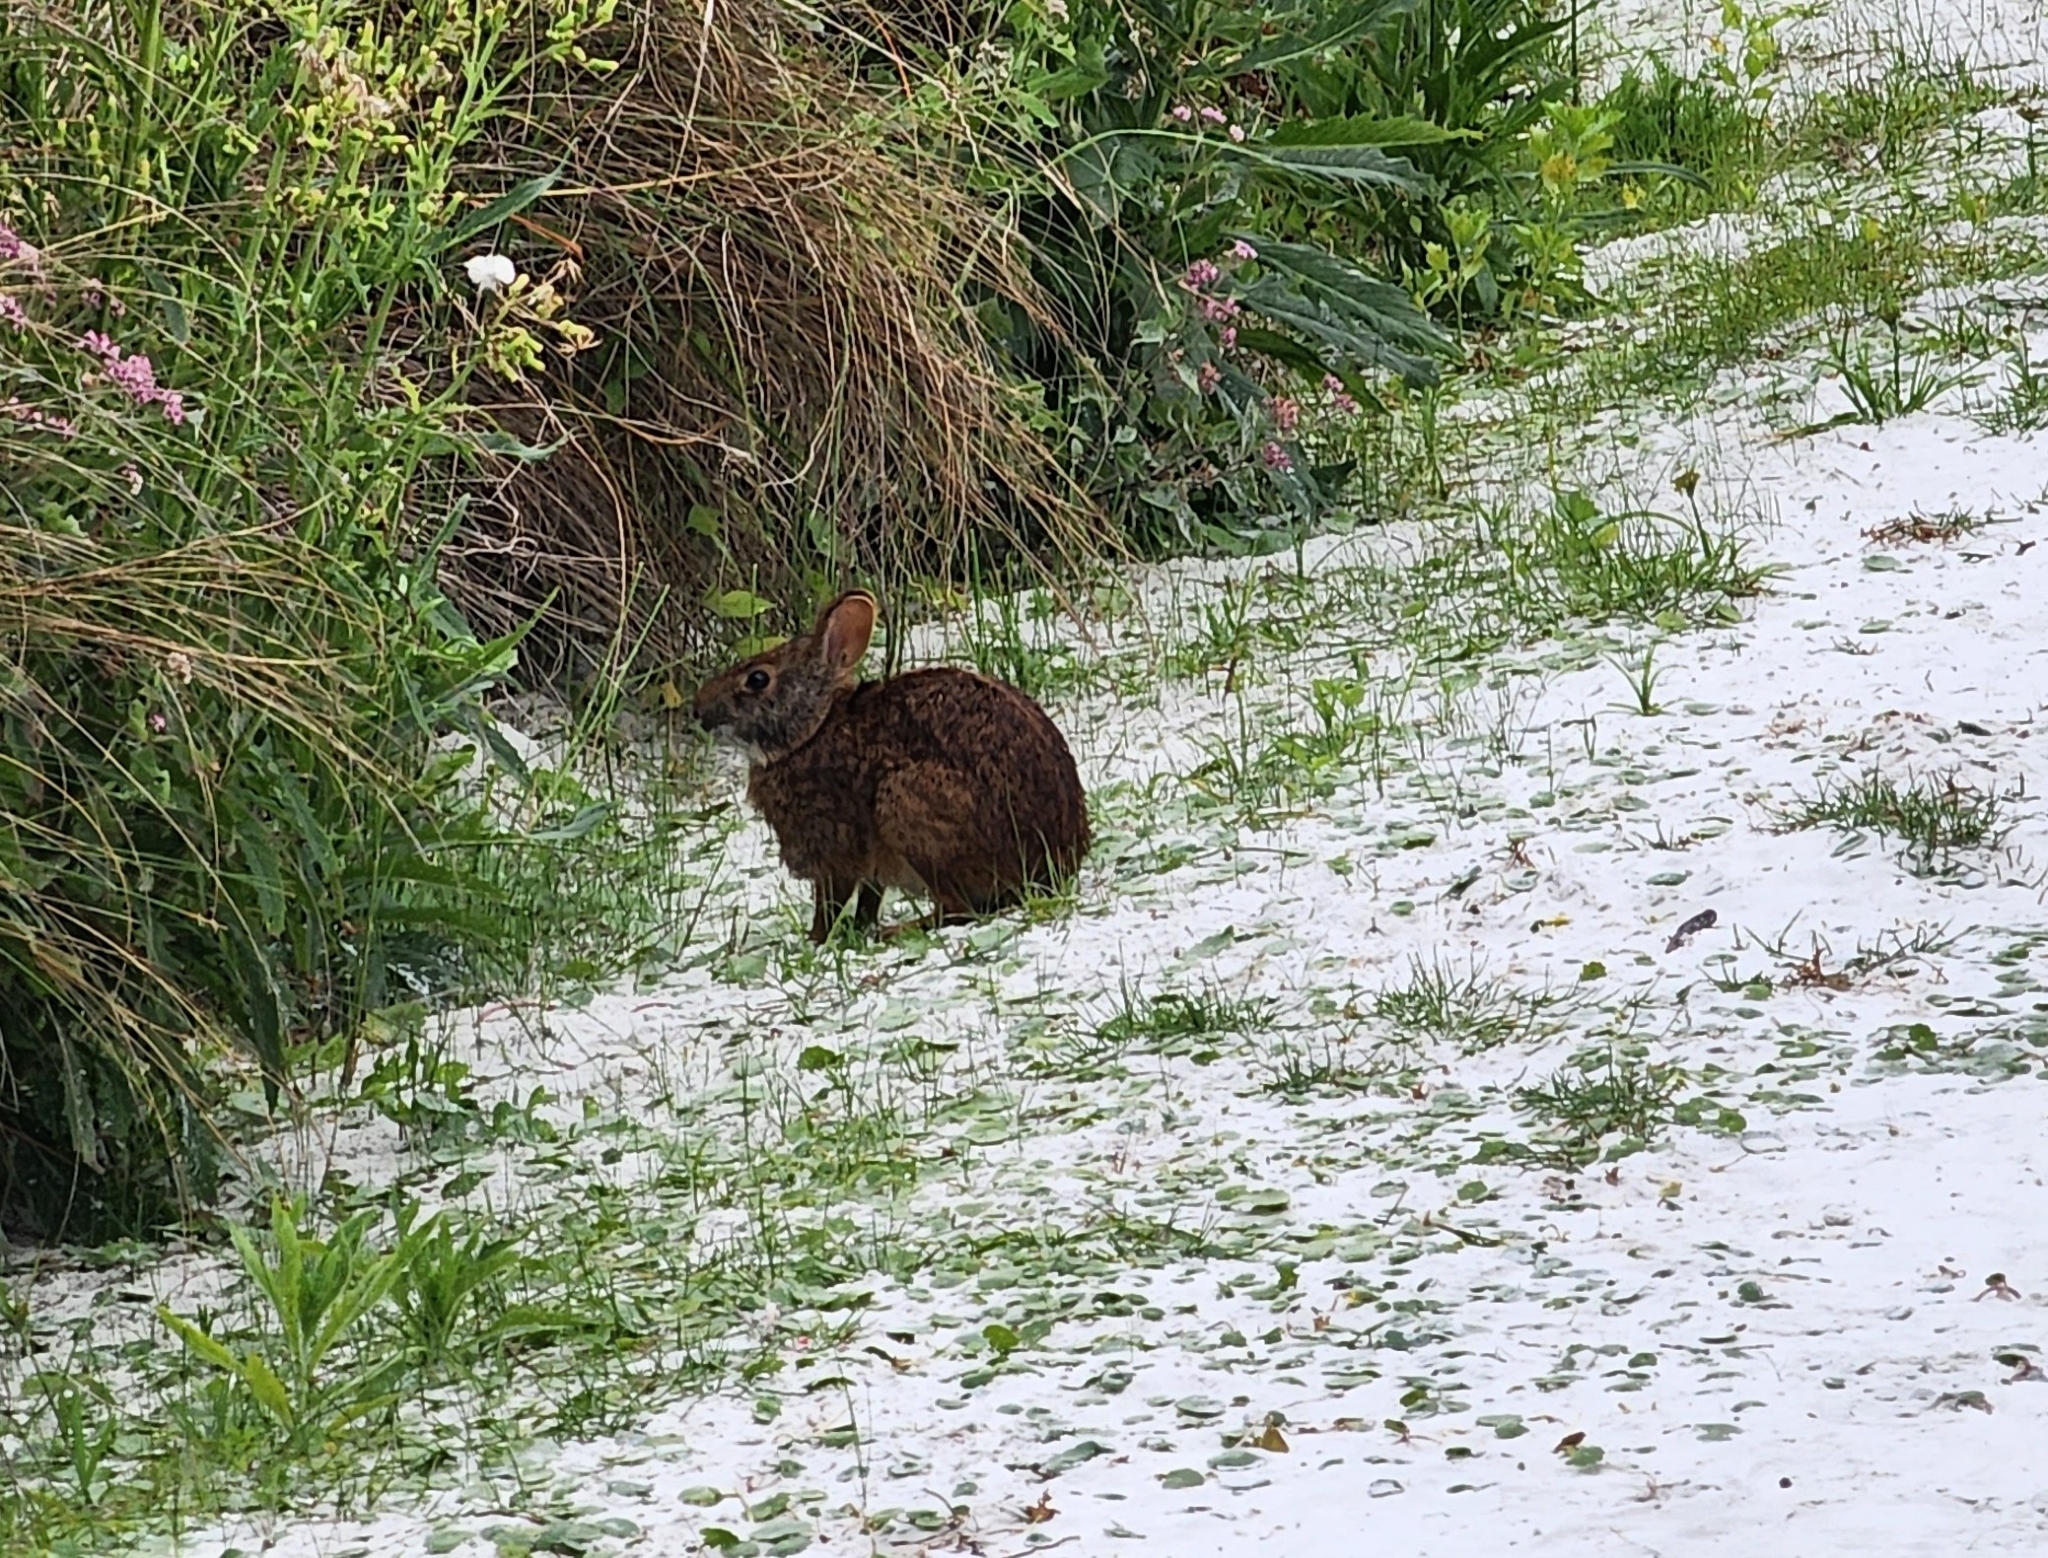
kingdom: Animalia
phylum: Chordata
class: Mammalia
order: Lagomorpha
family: Leporidae
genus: Sylvilagus
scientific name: Sylvilagus palustris
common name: Marsh rabbit
